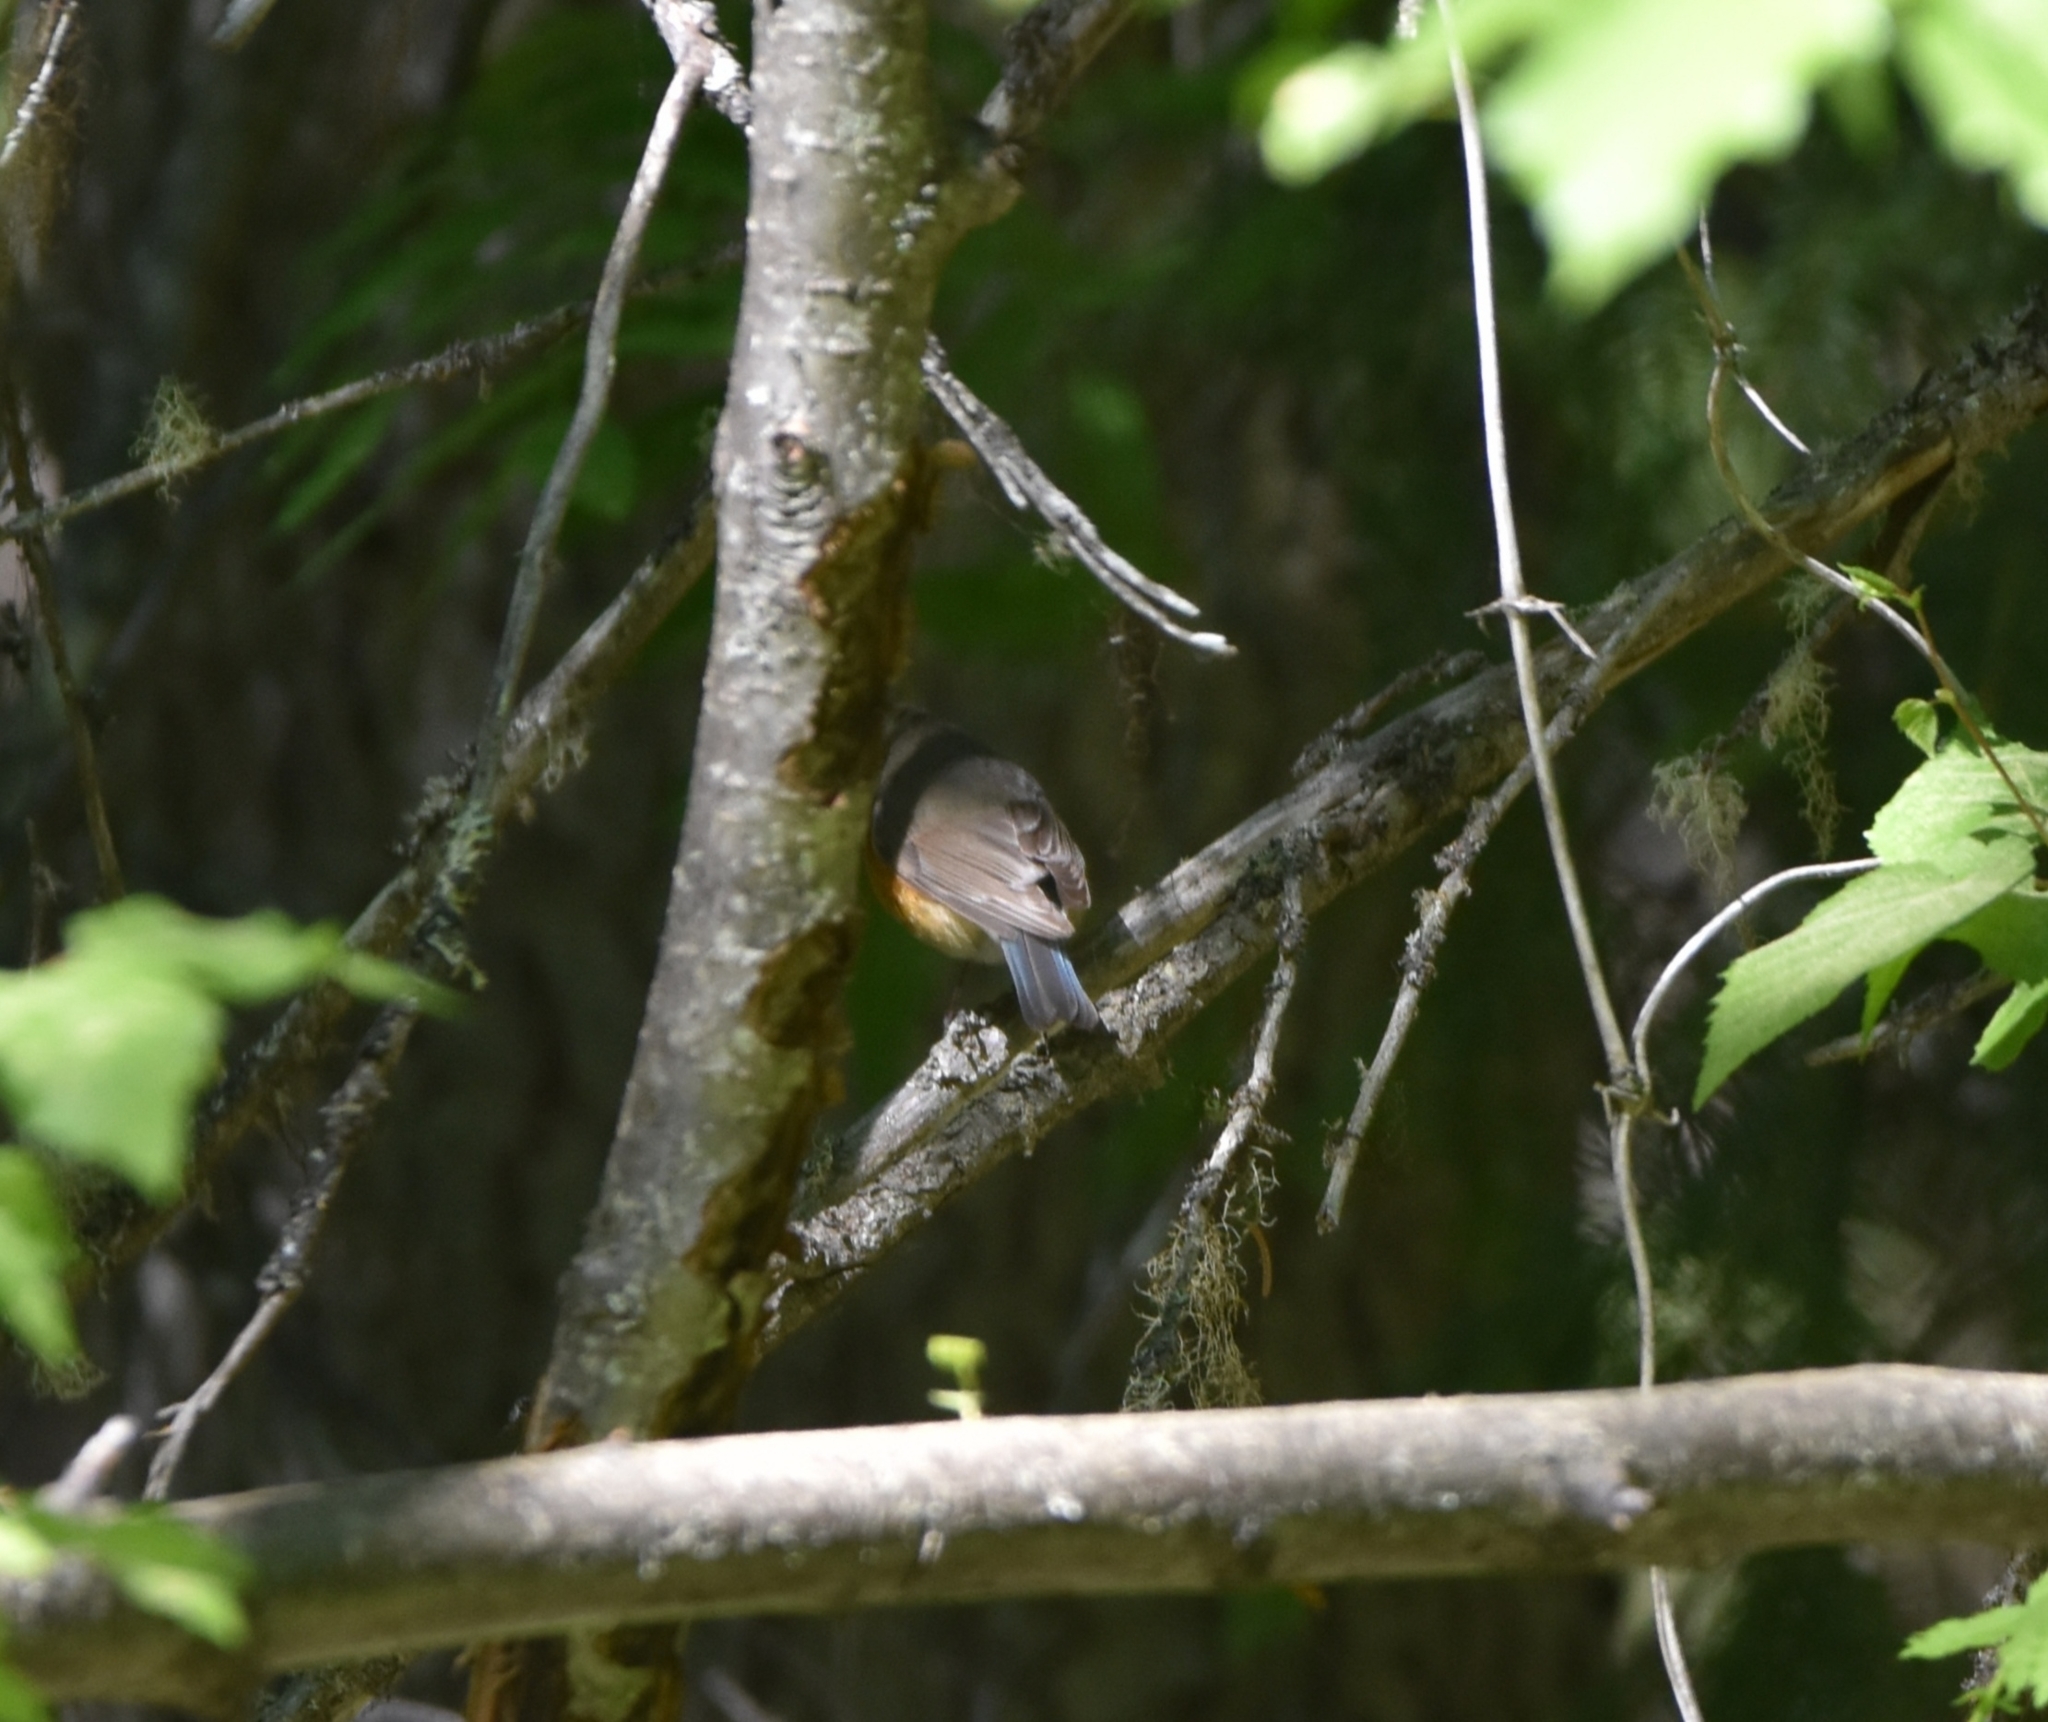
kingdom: Animalia
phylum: Chordata
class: Aves
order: Passeriformes
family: Muscicapidae
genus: Tarsiger
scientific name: Tarsiger cyanurus
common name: Red-flanked bluetail
